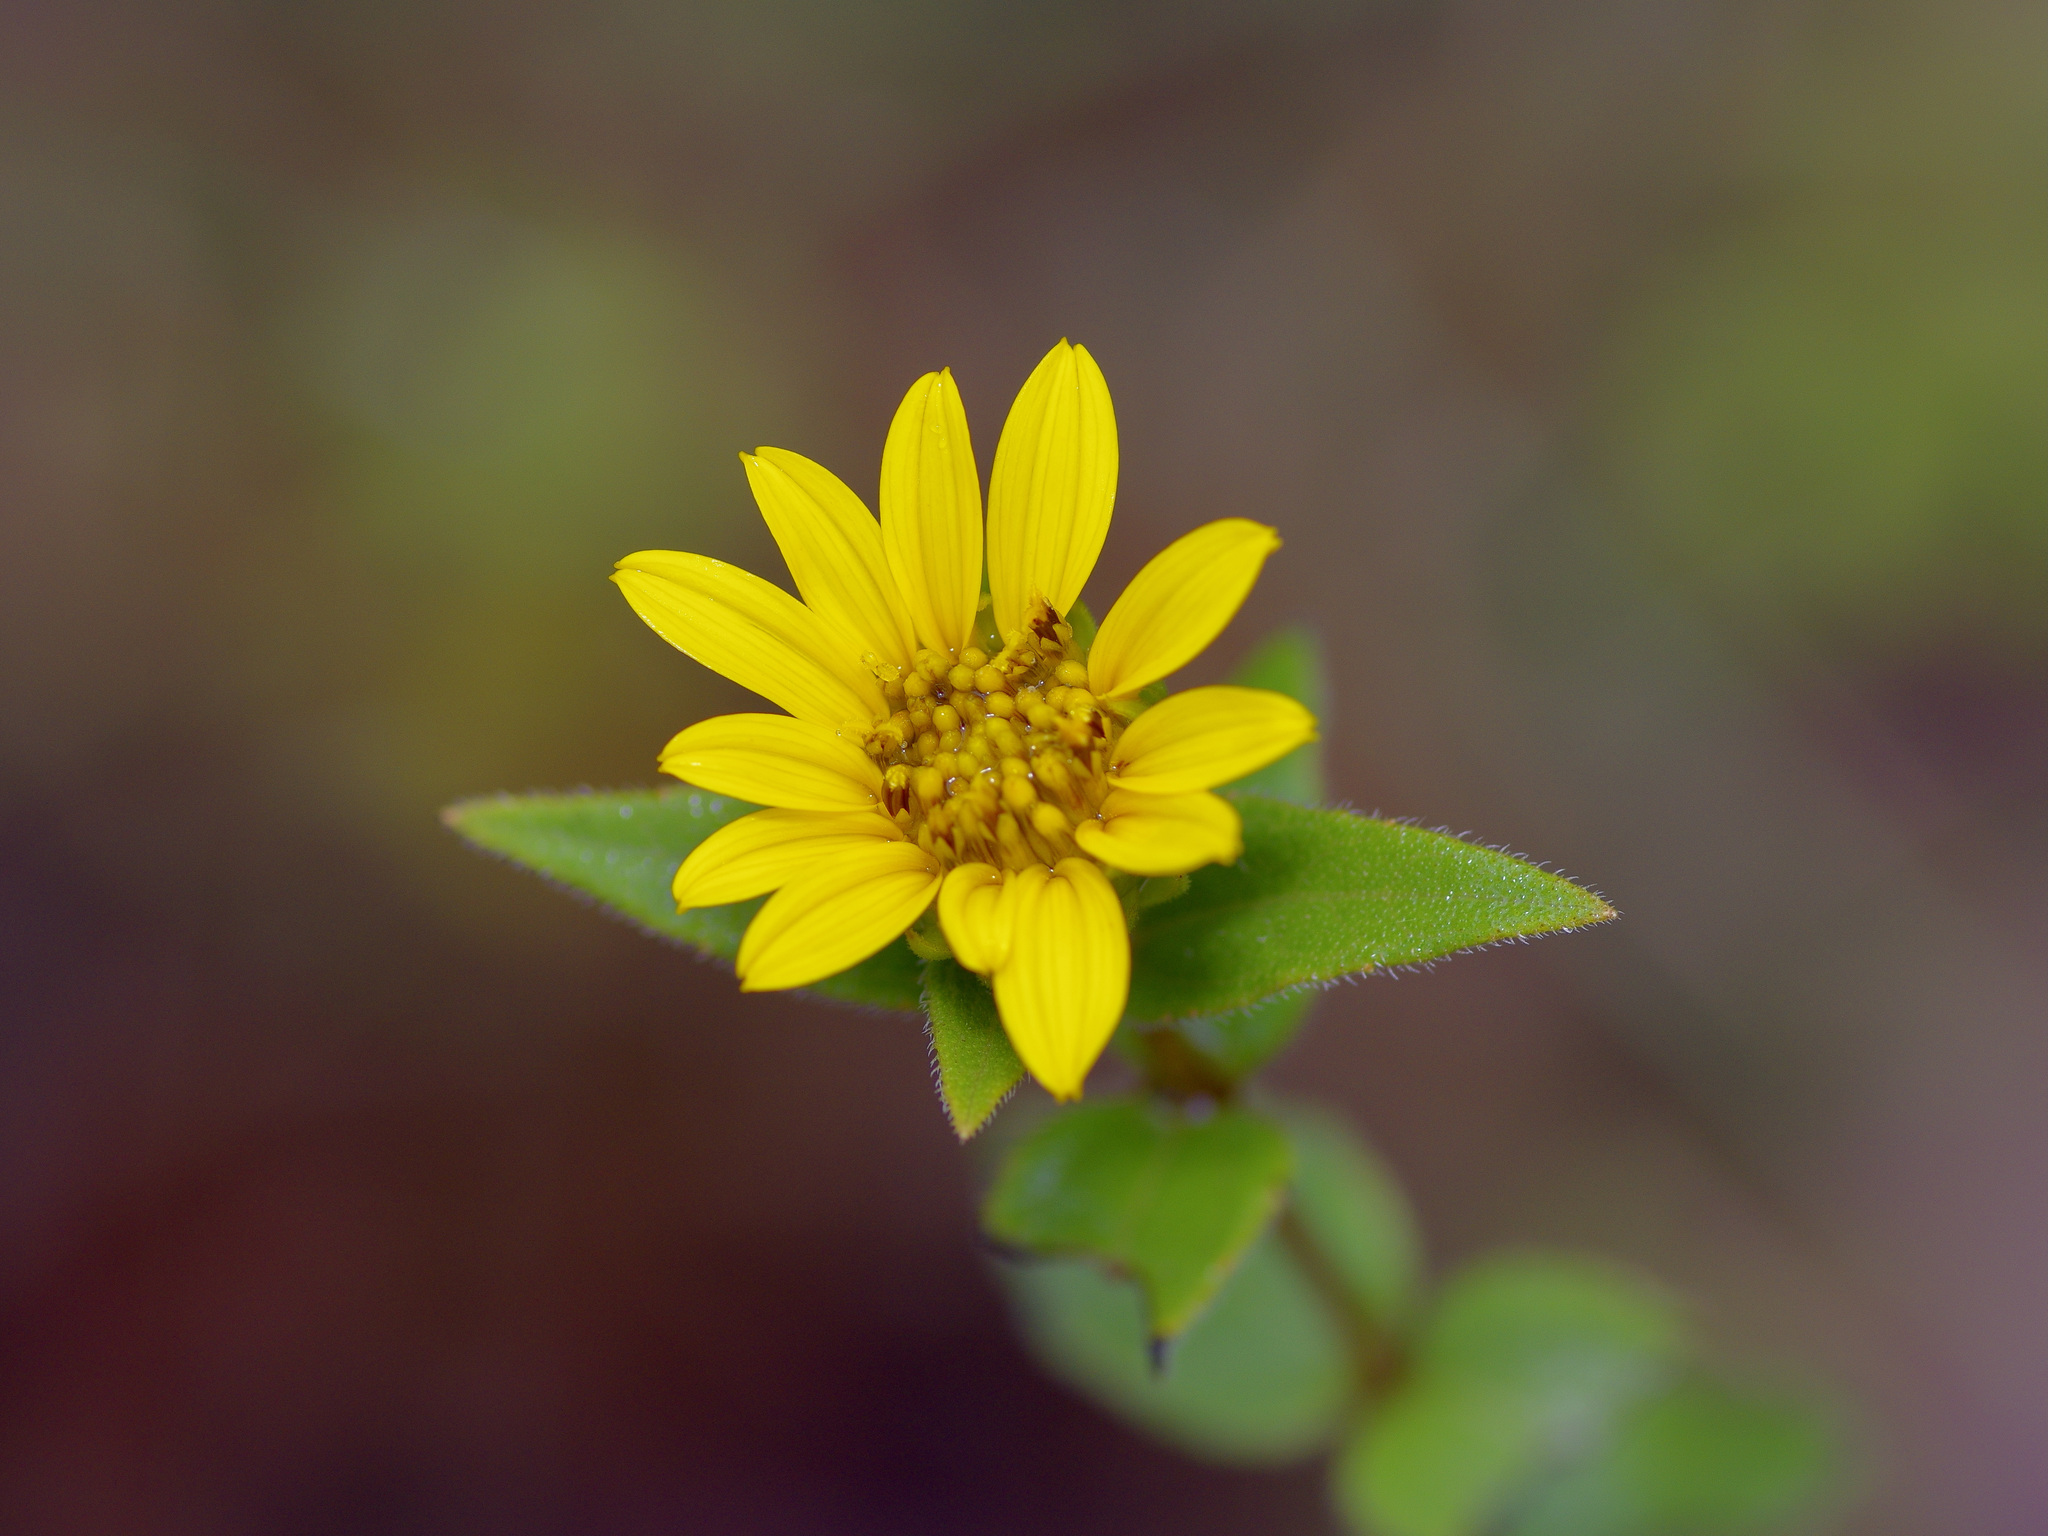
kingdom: Plantae
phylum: Tracheophyta
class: Magnoliopsida
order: Asterales
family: Asteraceae
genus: Helianthus
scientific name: Helianthus hirsutus
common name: Hairy sunflower
